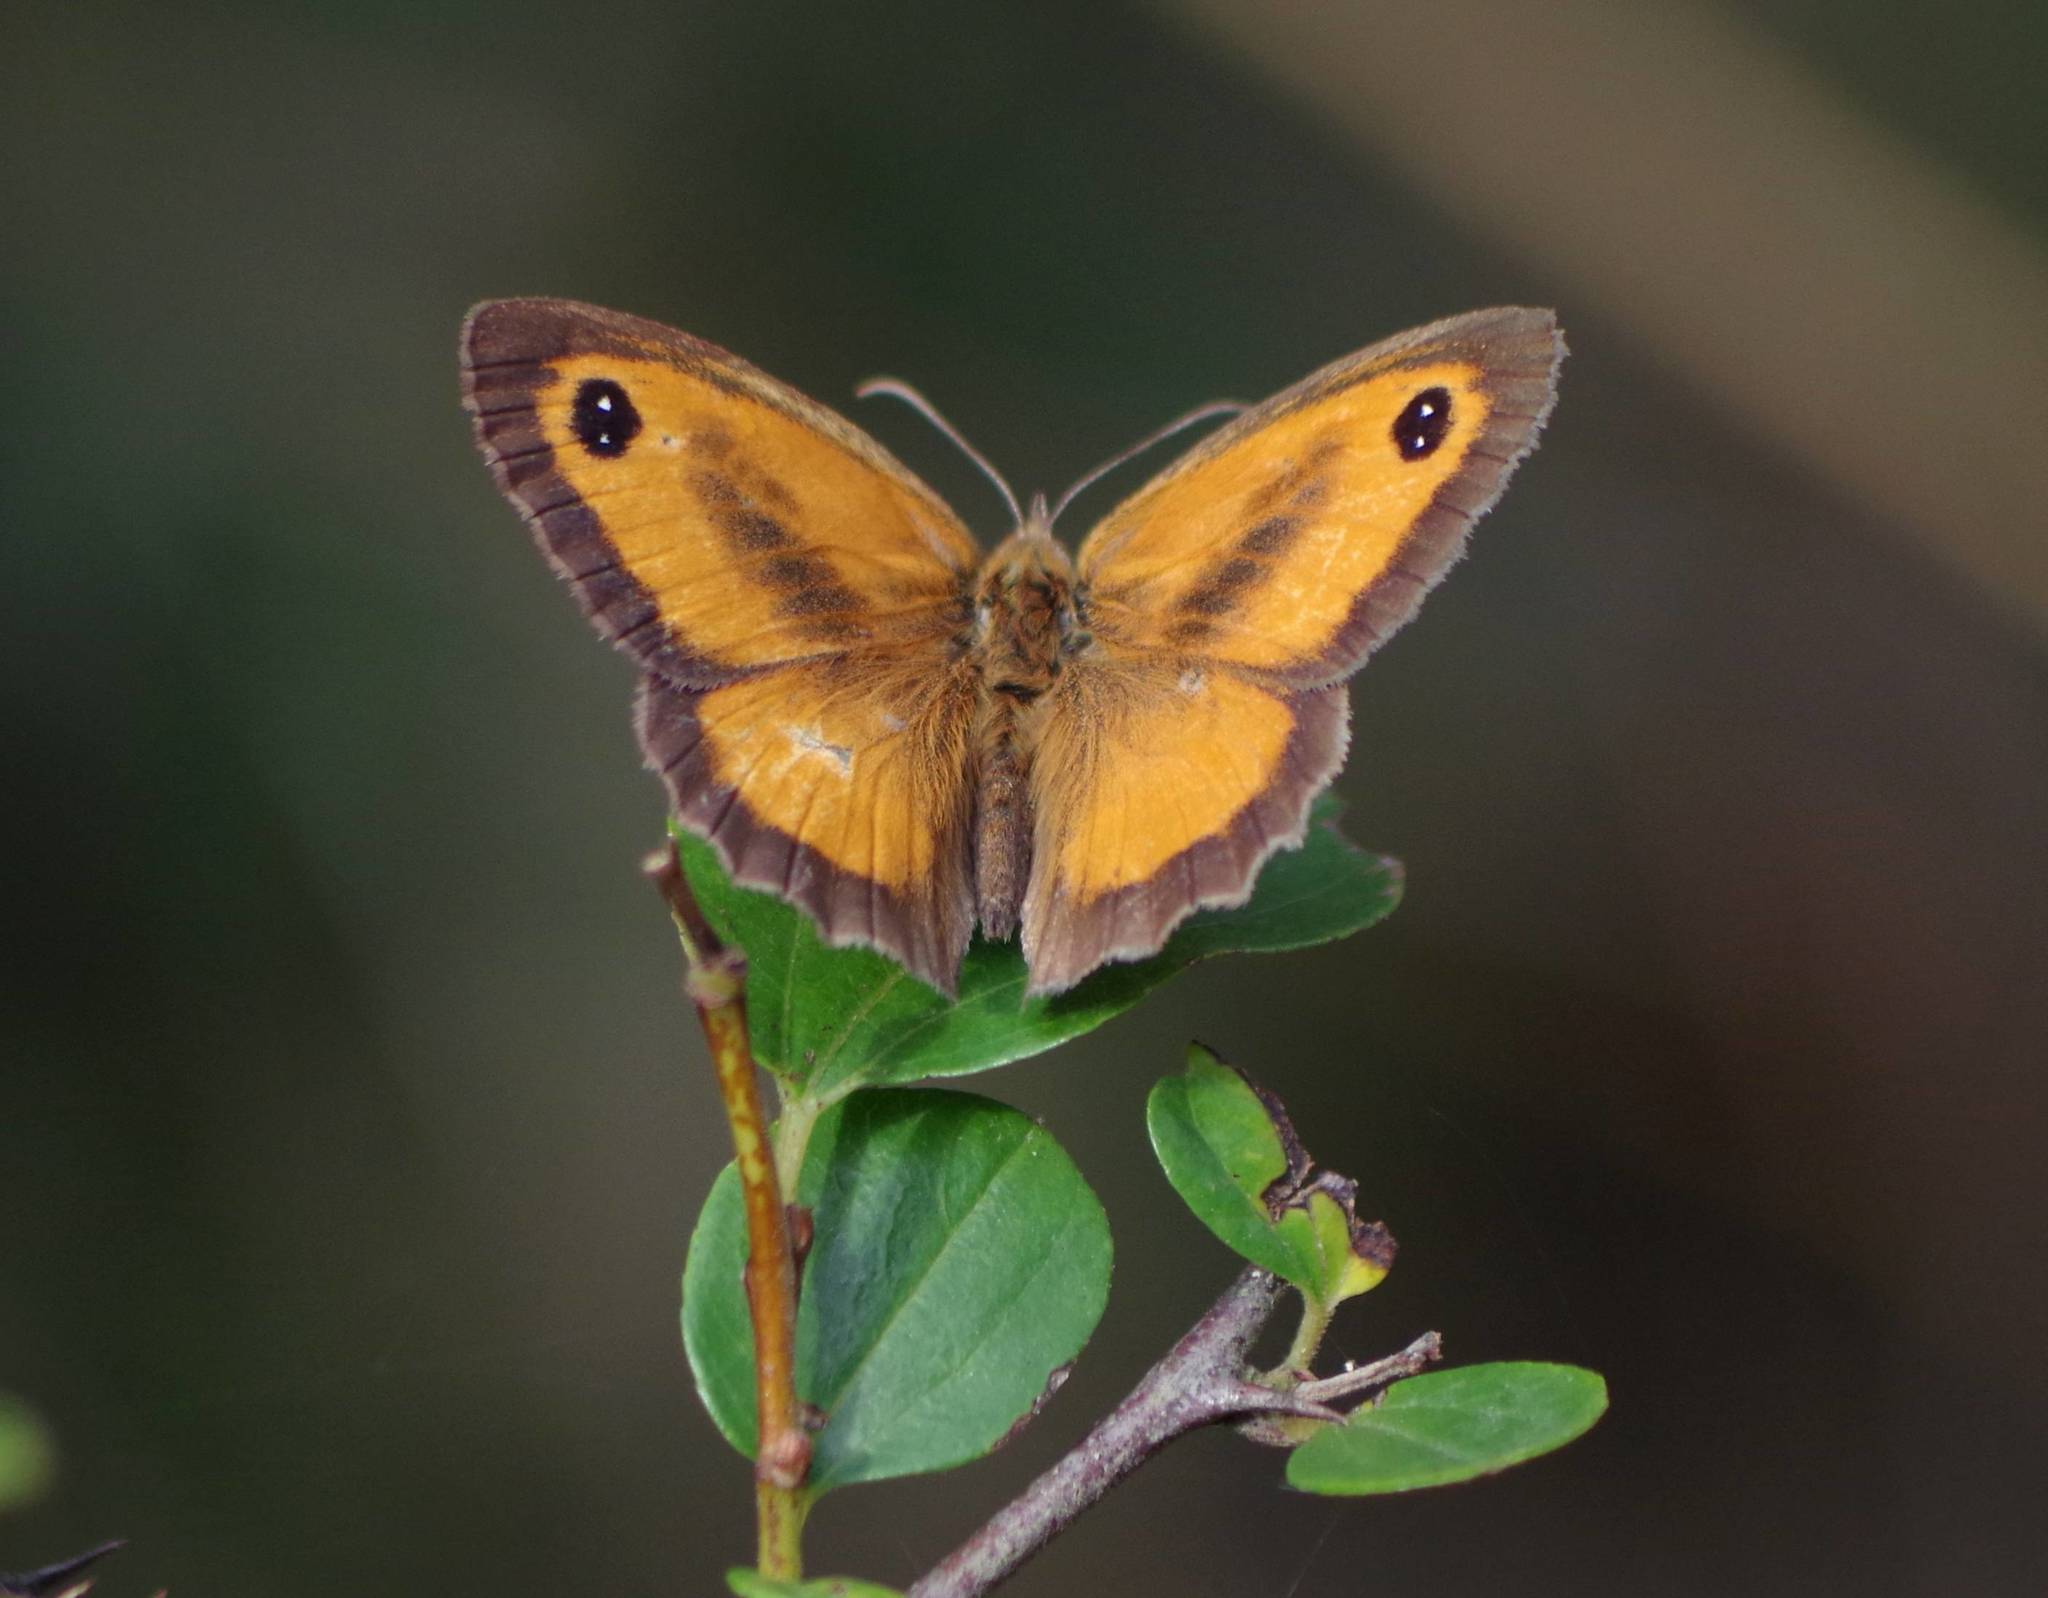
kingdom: Animalia
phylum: Arthropoda
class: Insecta
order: Lepidoptera
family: Nymphalidae
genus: Pyronia
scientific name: Pyronia tithonus
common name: Gatekeeper
